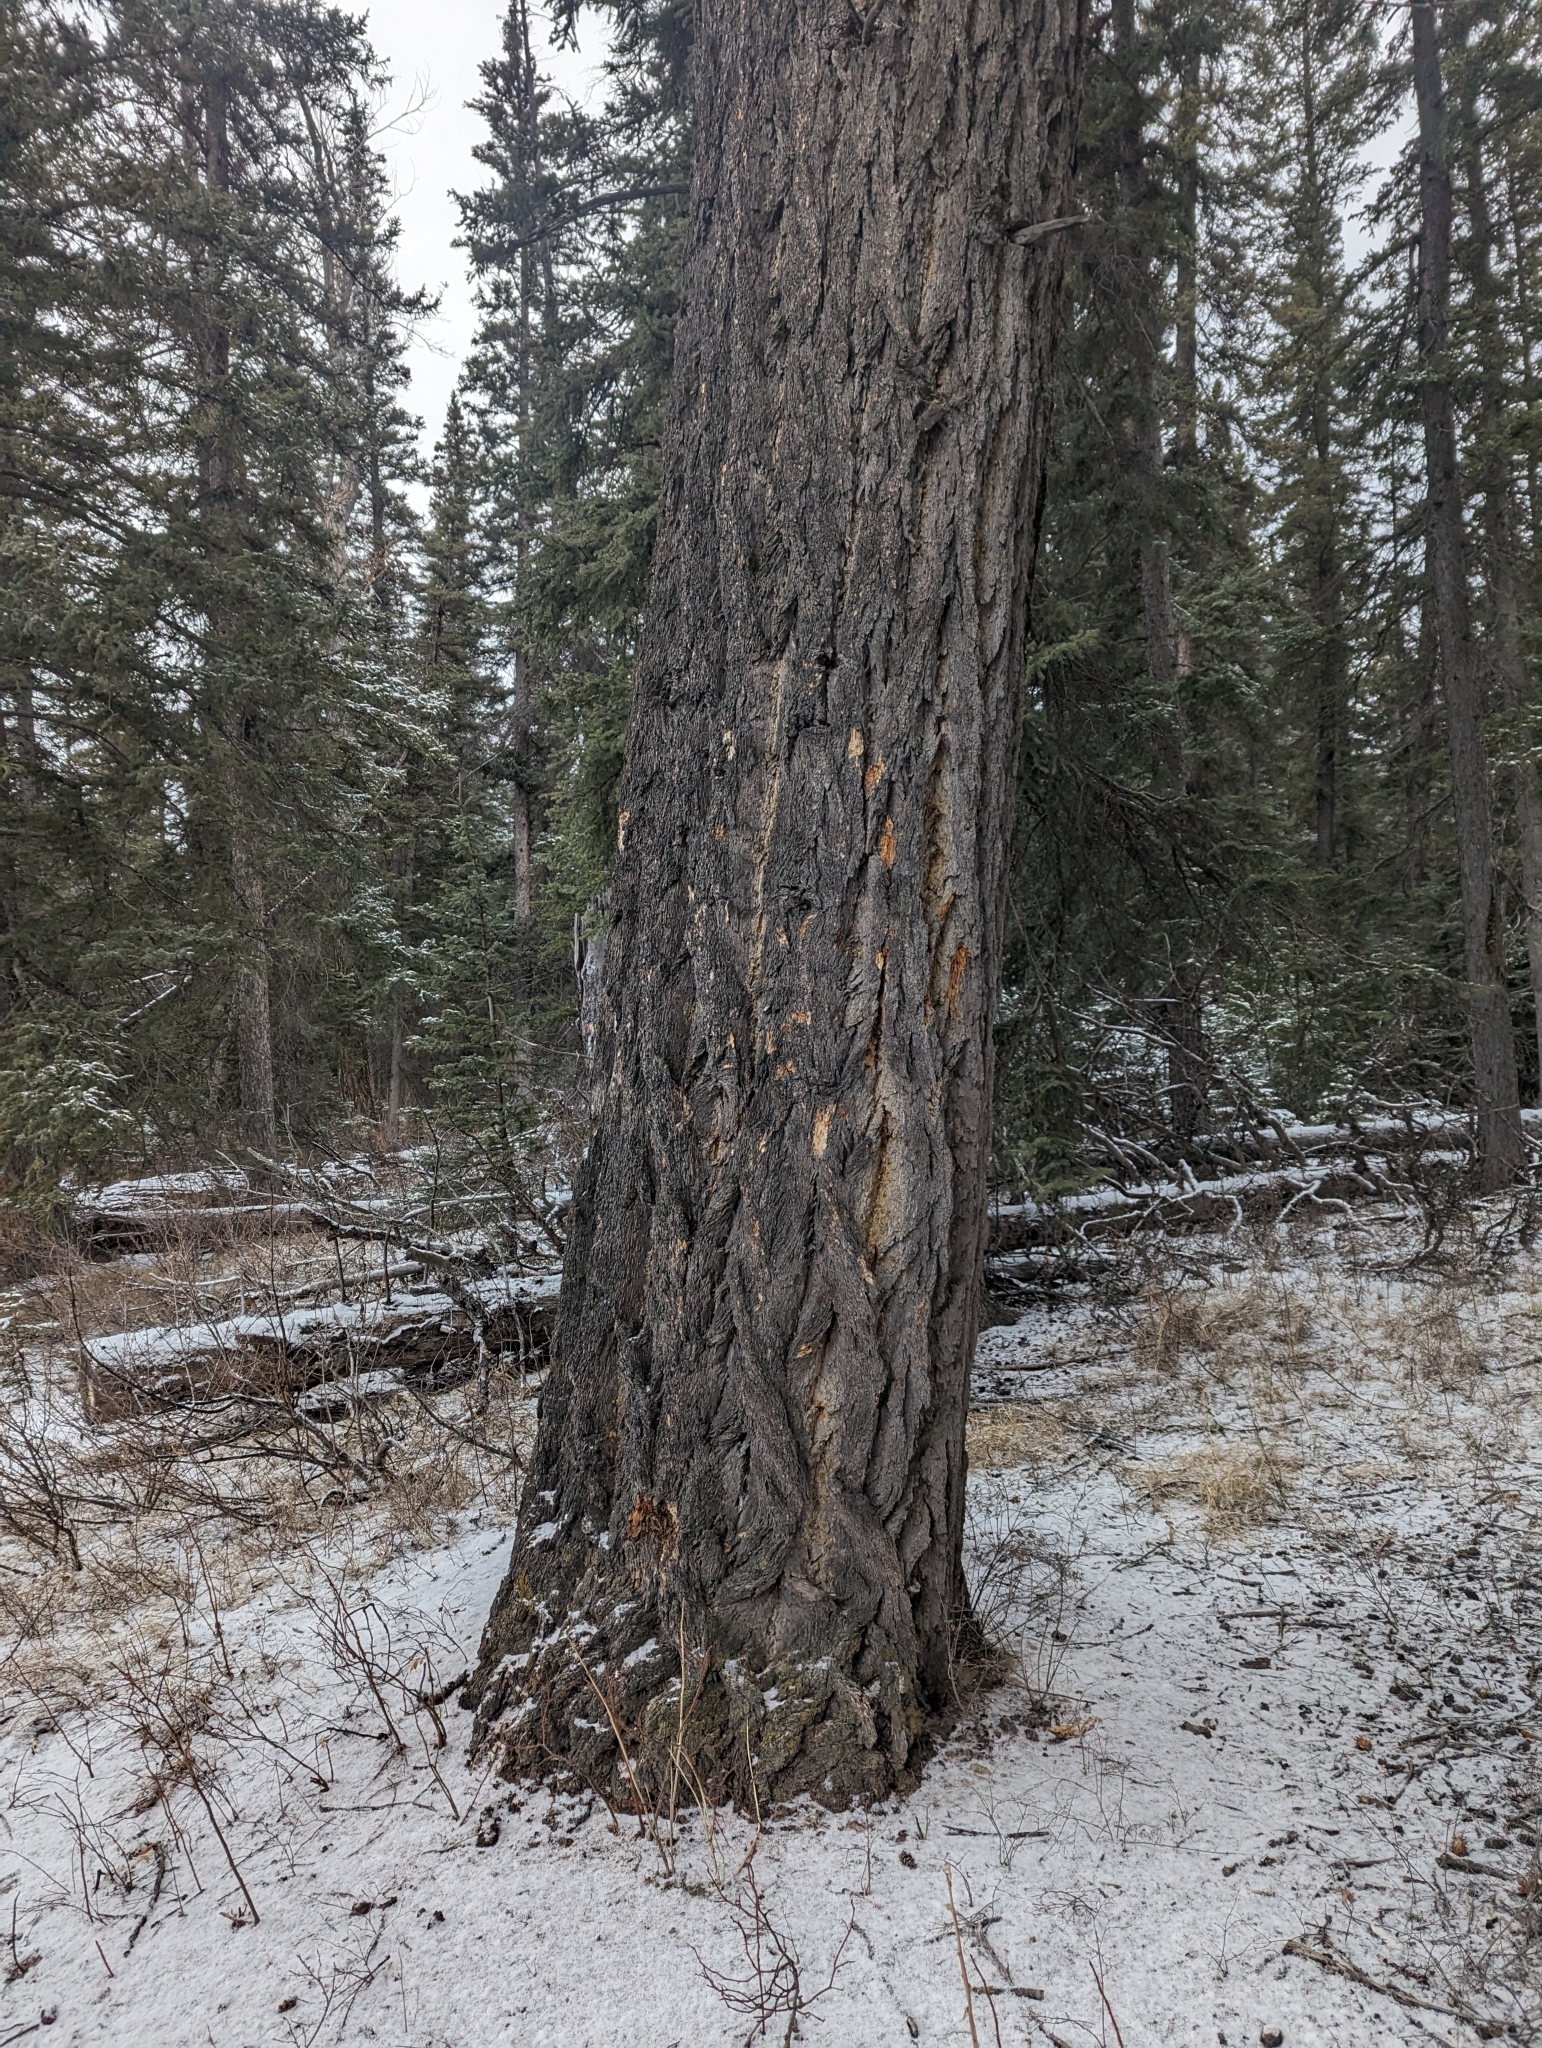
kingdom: Plantae
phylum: Tracheophyta
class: Pinopsida
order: Pinales
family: Pinaceae
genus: Pseudotsuga
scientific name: Pseudotsuga menziesii
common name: Douglas fir
